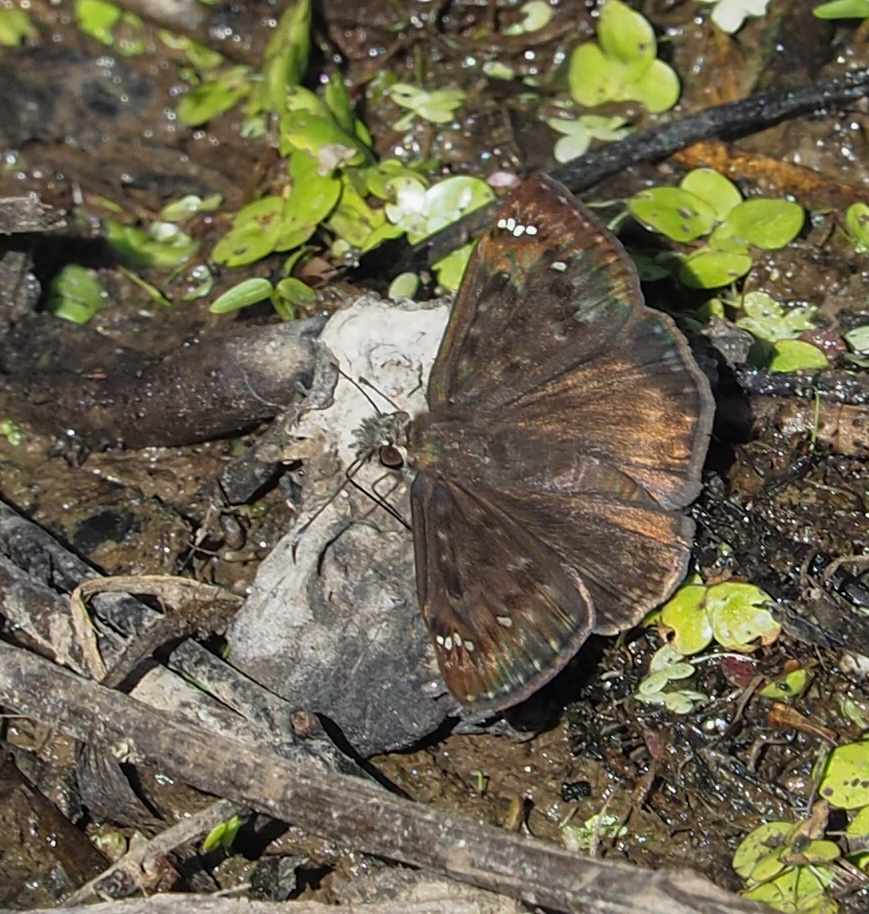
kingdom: Animalia
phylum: Arthropoda
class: Insecta
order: Lepidoptera
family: Hesperiidae
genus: Erynnis
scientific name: Erynnis horatius
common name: Horace's duskywing
